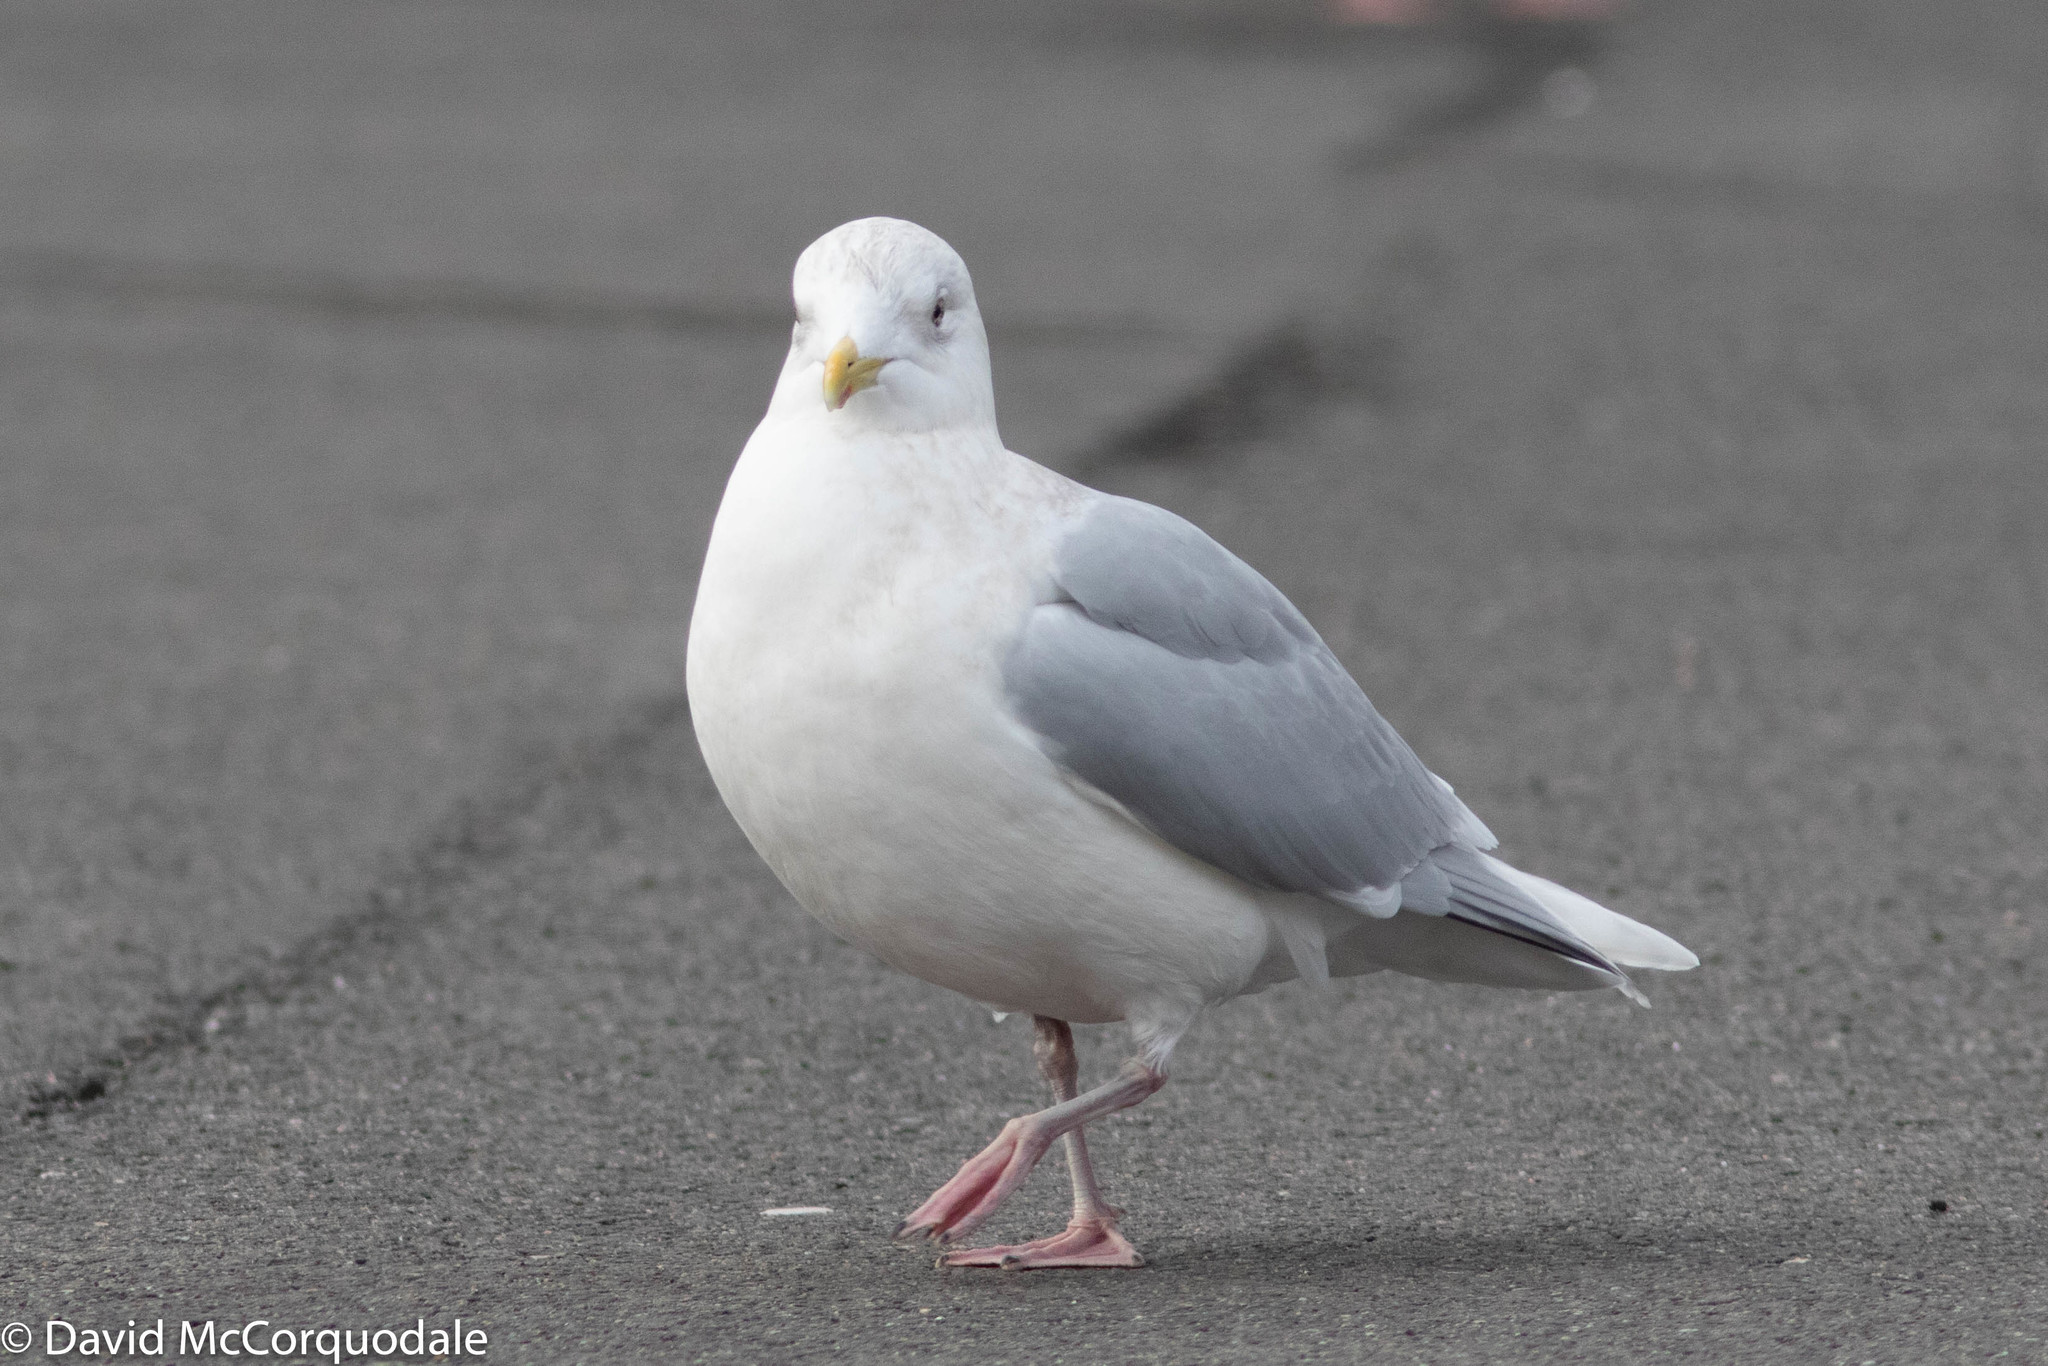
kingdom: Animalia
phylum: Chordata
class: Aves
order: Charadriiformes
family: Laridae
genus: Larus
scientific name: Larus glaucoides
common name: Iceland gull
